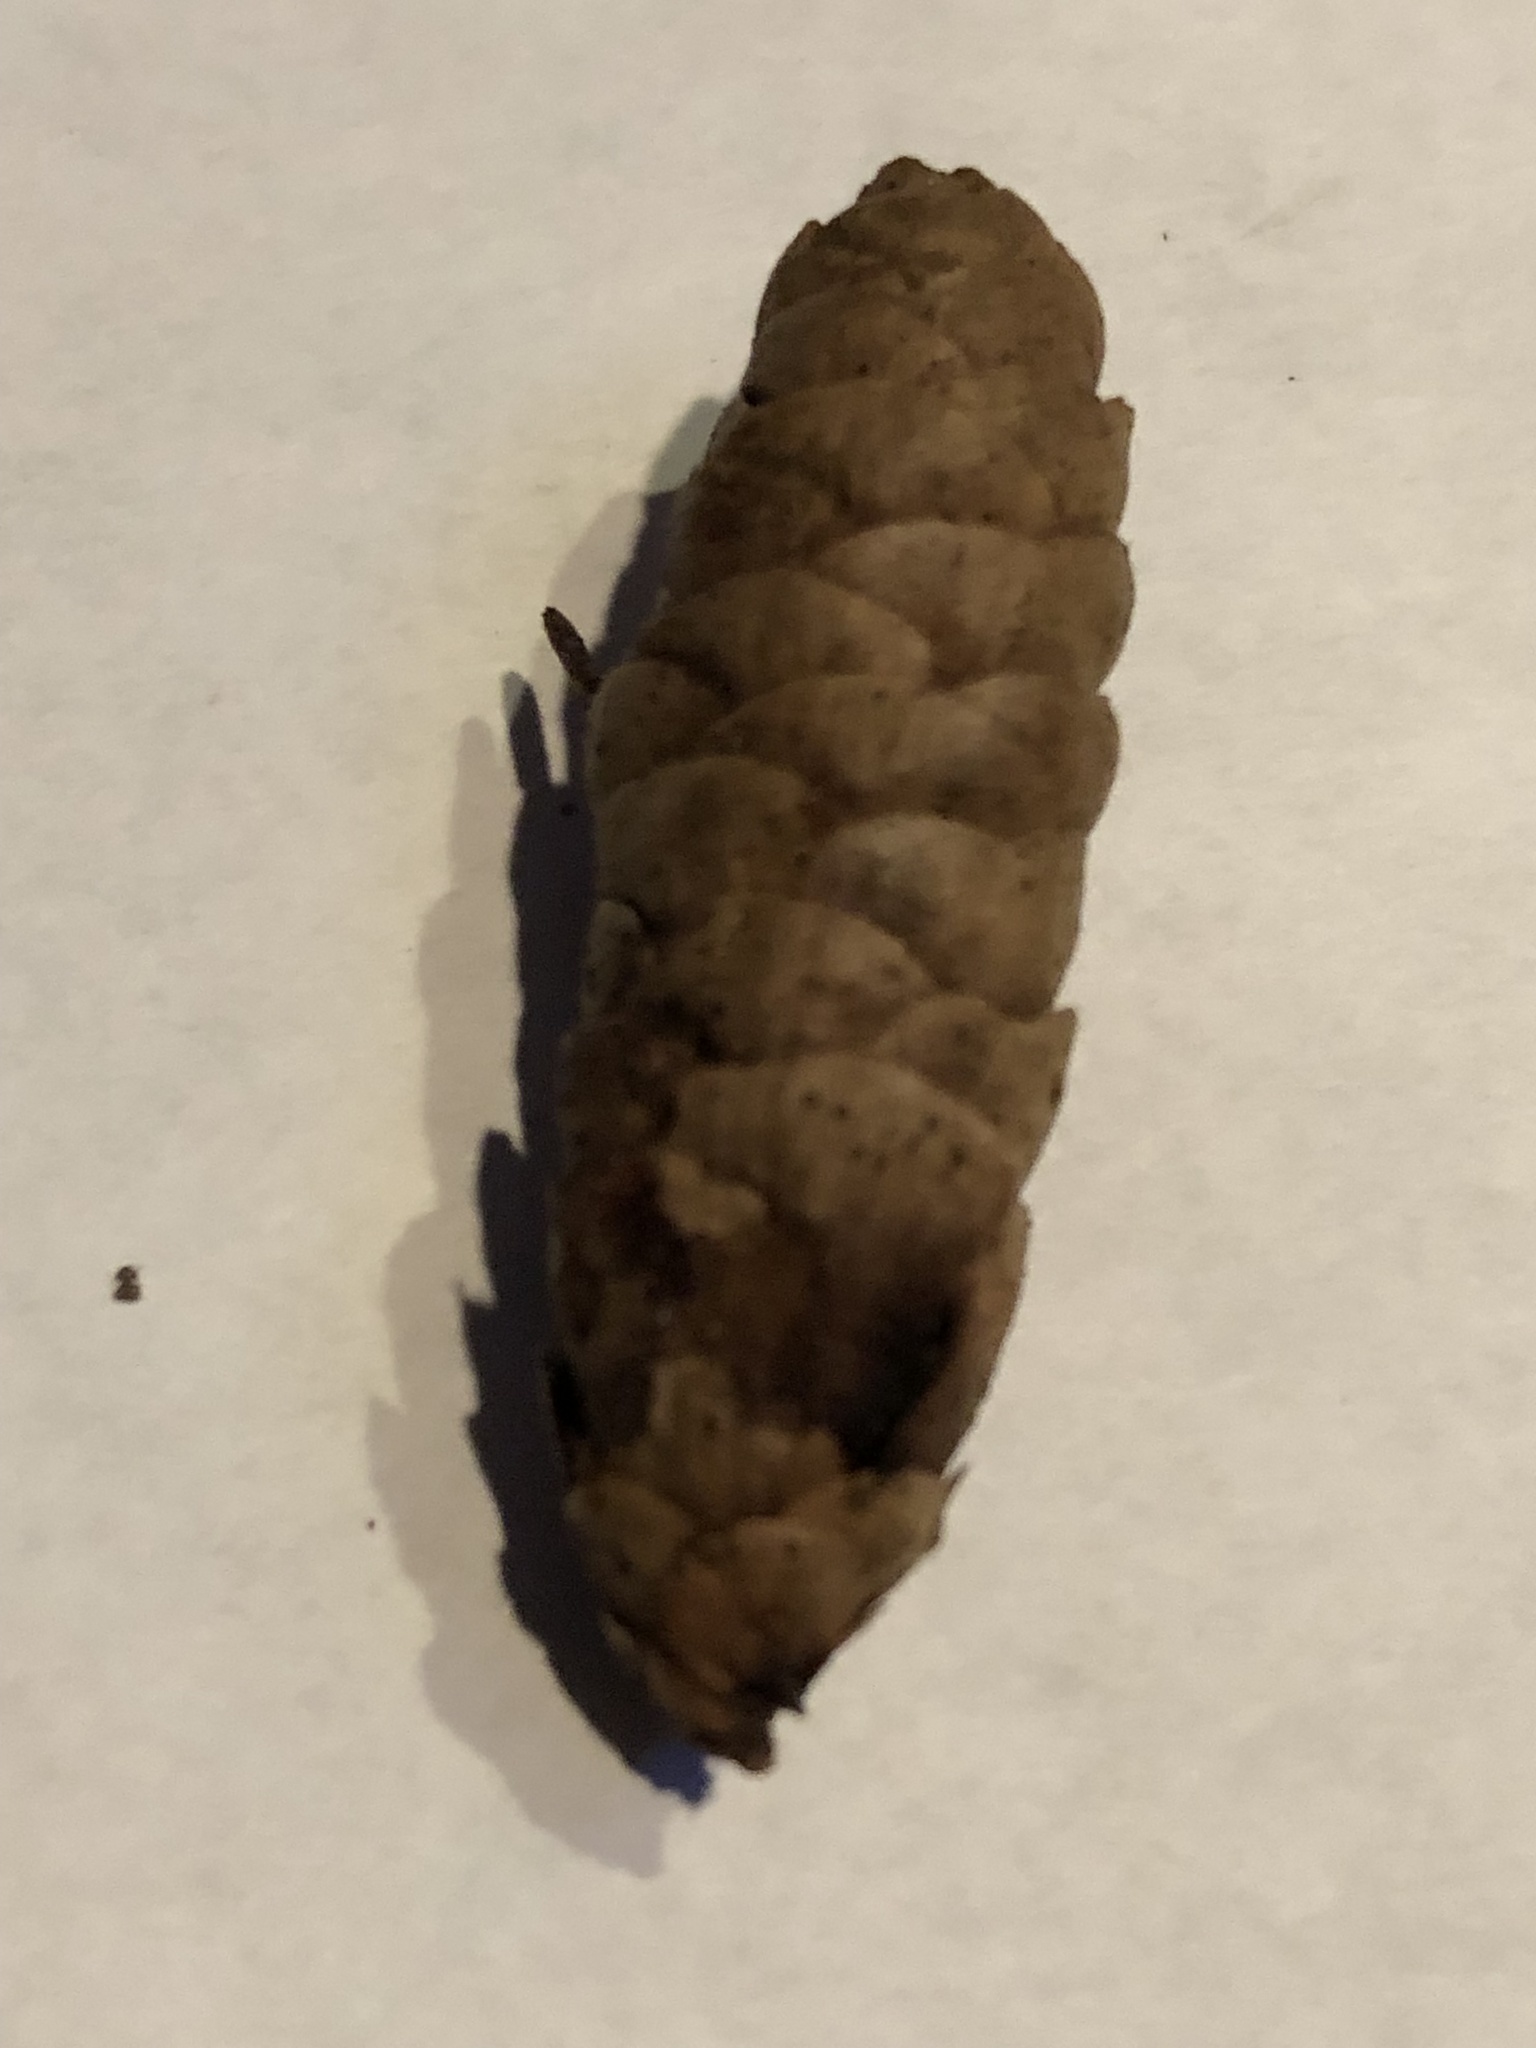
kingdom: Plantae
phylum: Tracheophyta
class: Pinopsida
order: Pinales
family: Pinaceae
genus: Picea
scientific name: Picea glauca
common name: White spruce
